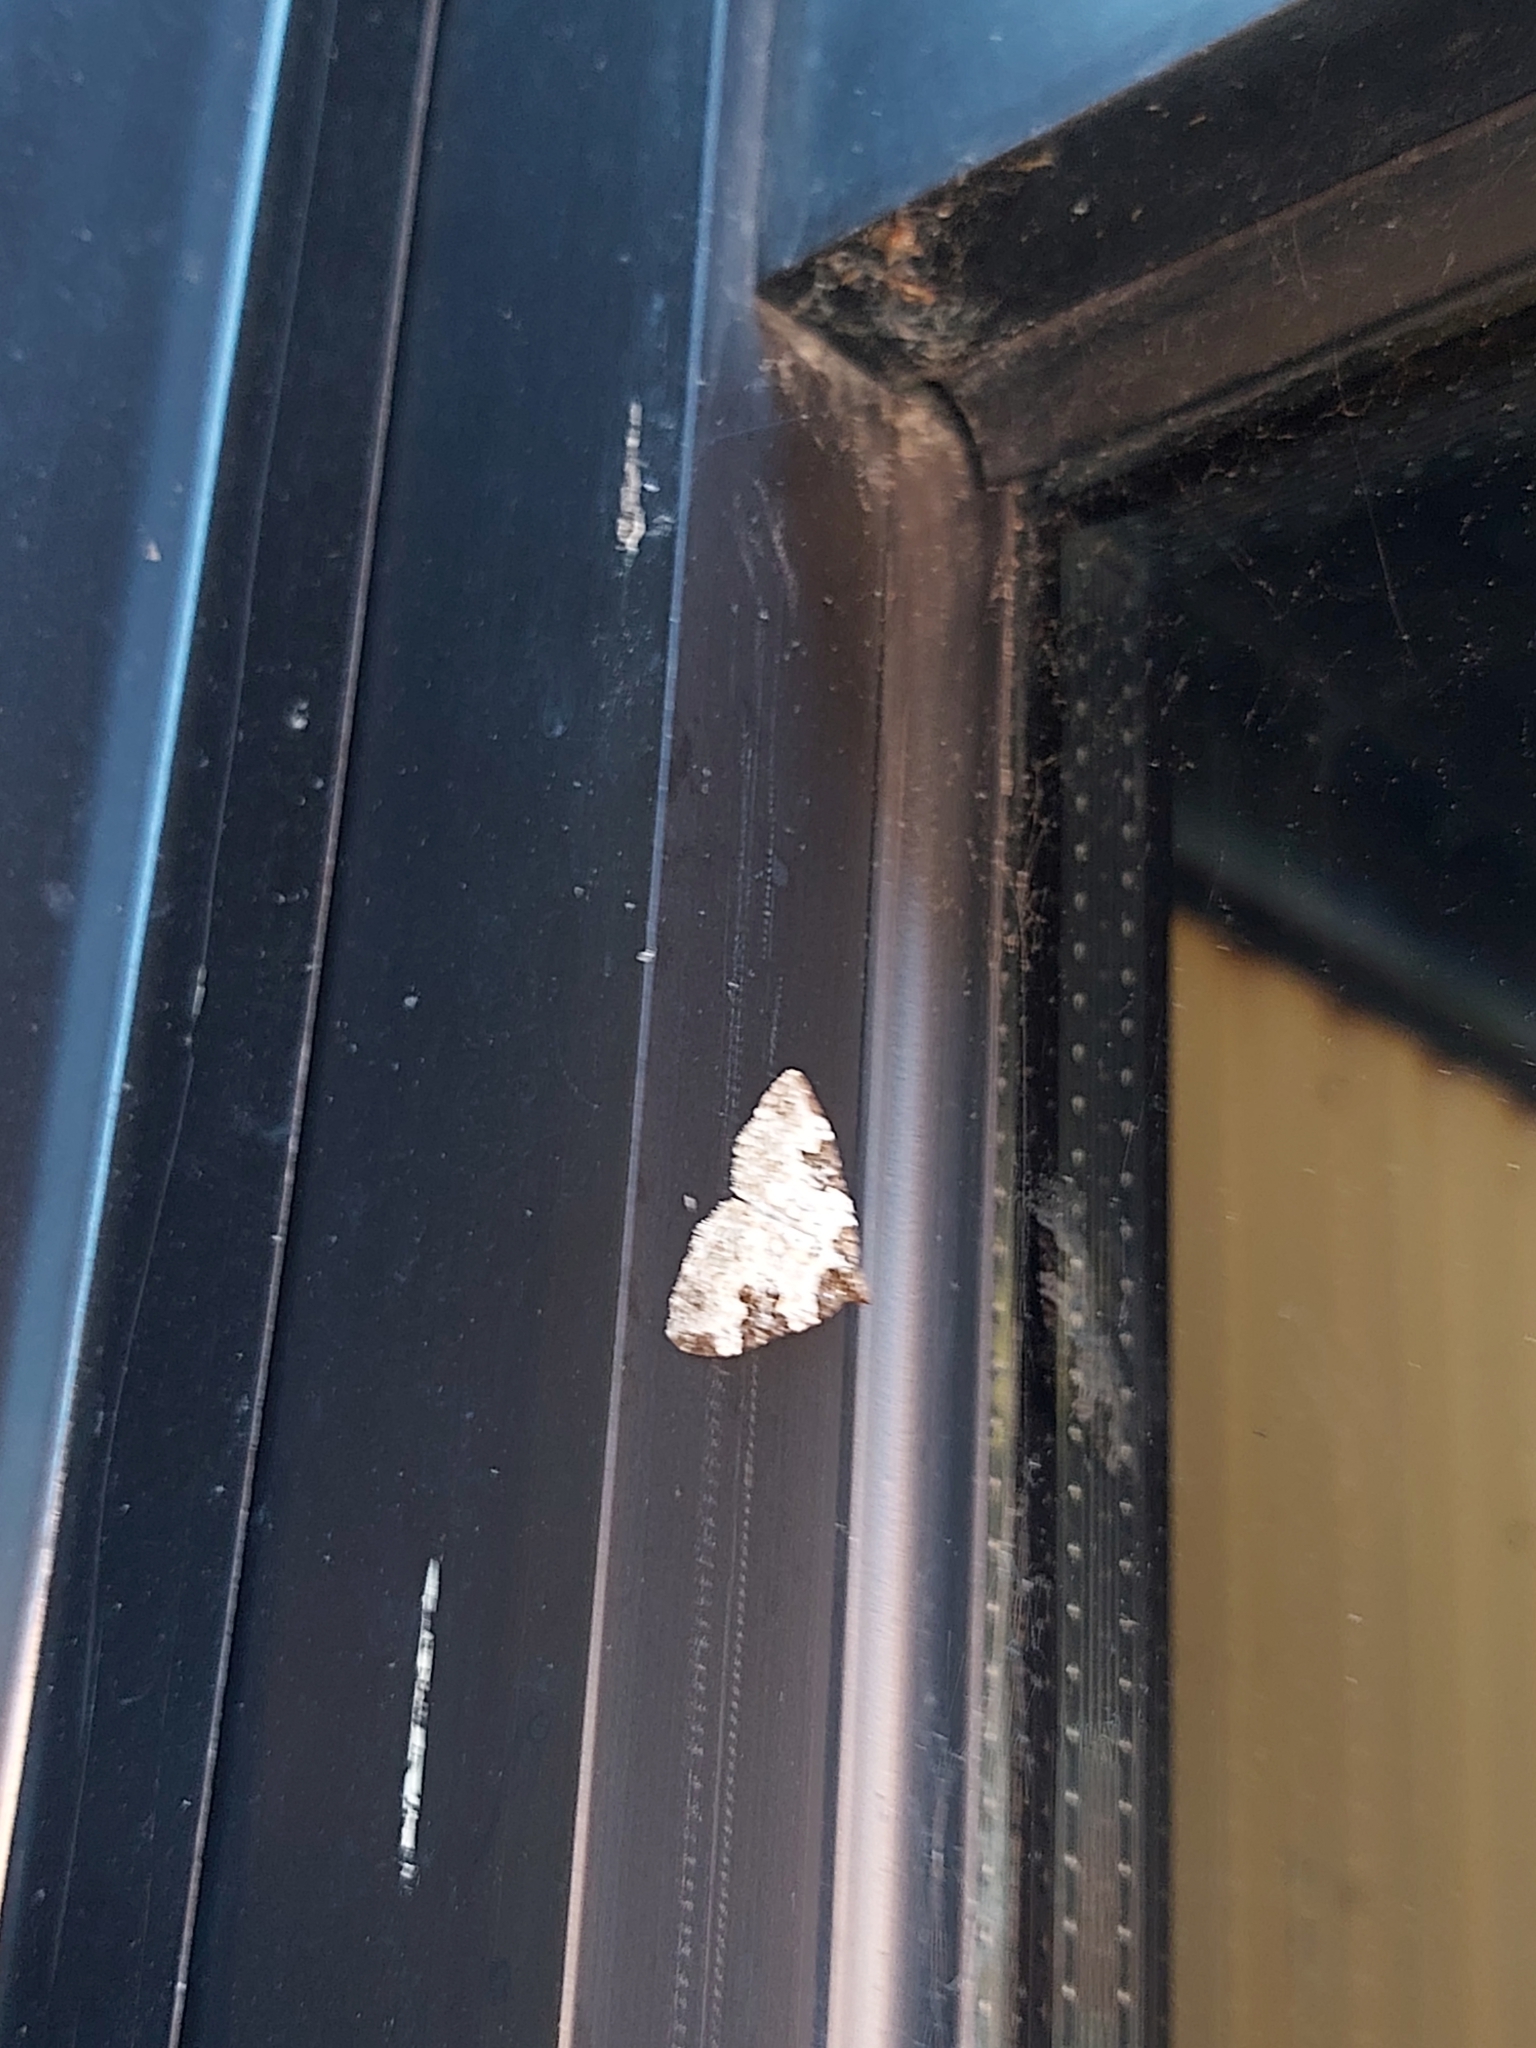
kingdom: Animalia
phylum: Arthropoda
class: Insecta
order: Lepidoptera
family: Geometridae
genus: Xanthorhoe
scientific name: Xanthorhoe fluctuata
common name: Garden carpet
